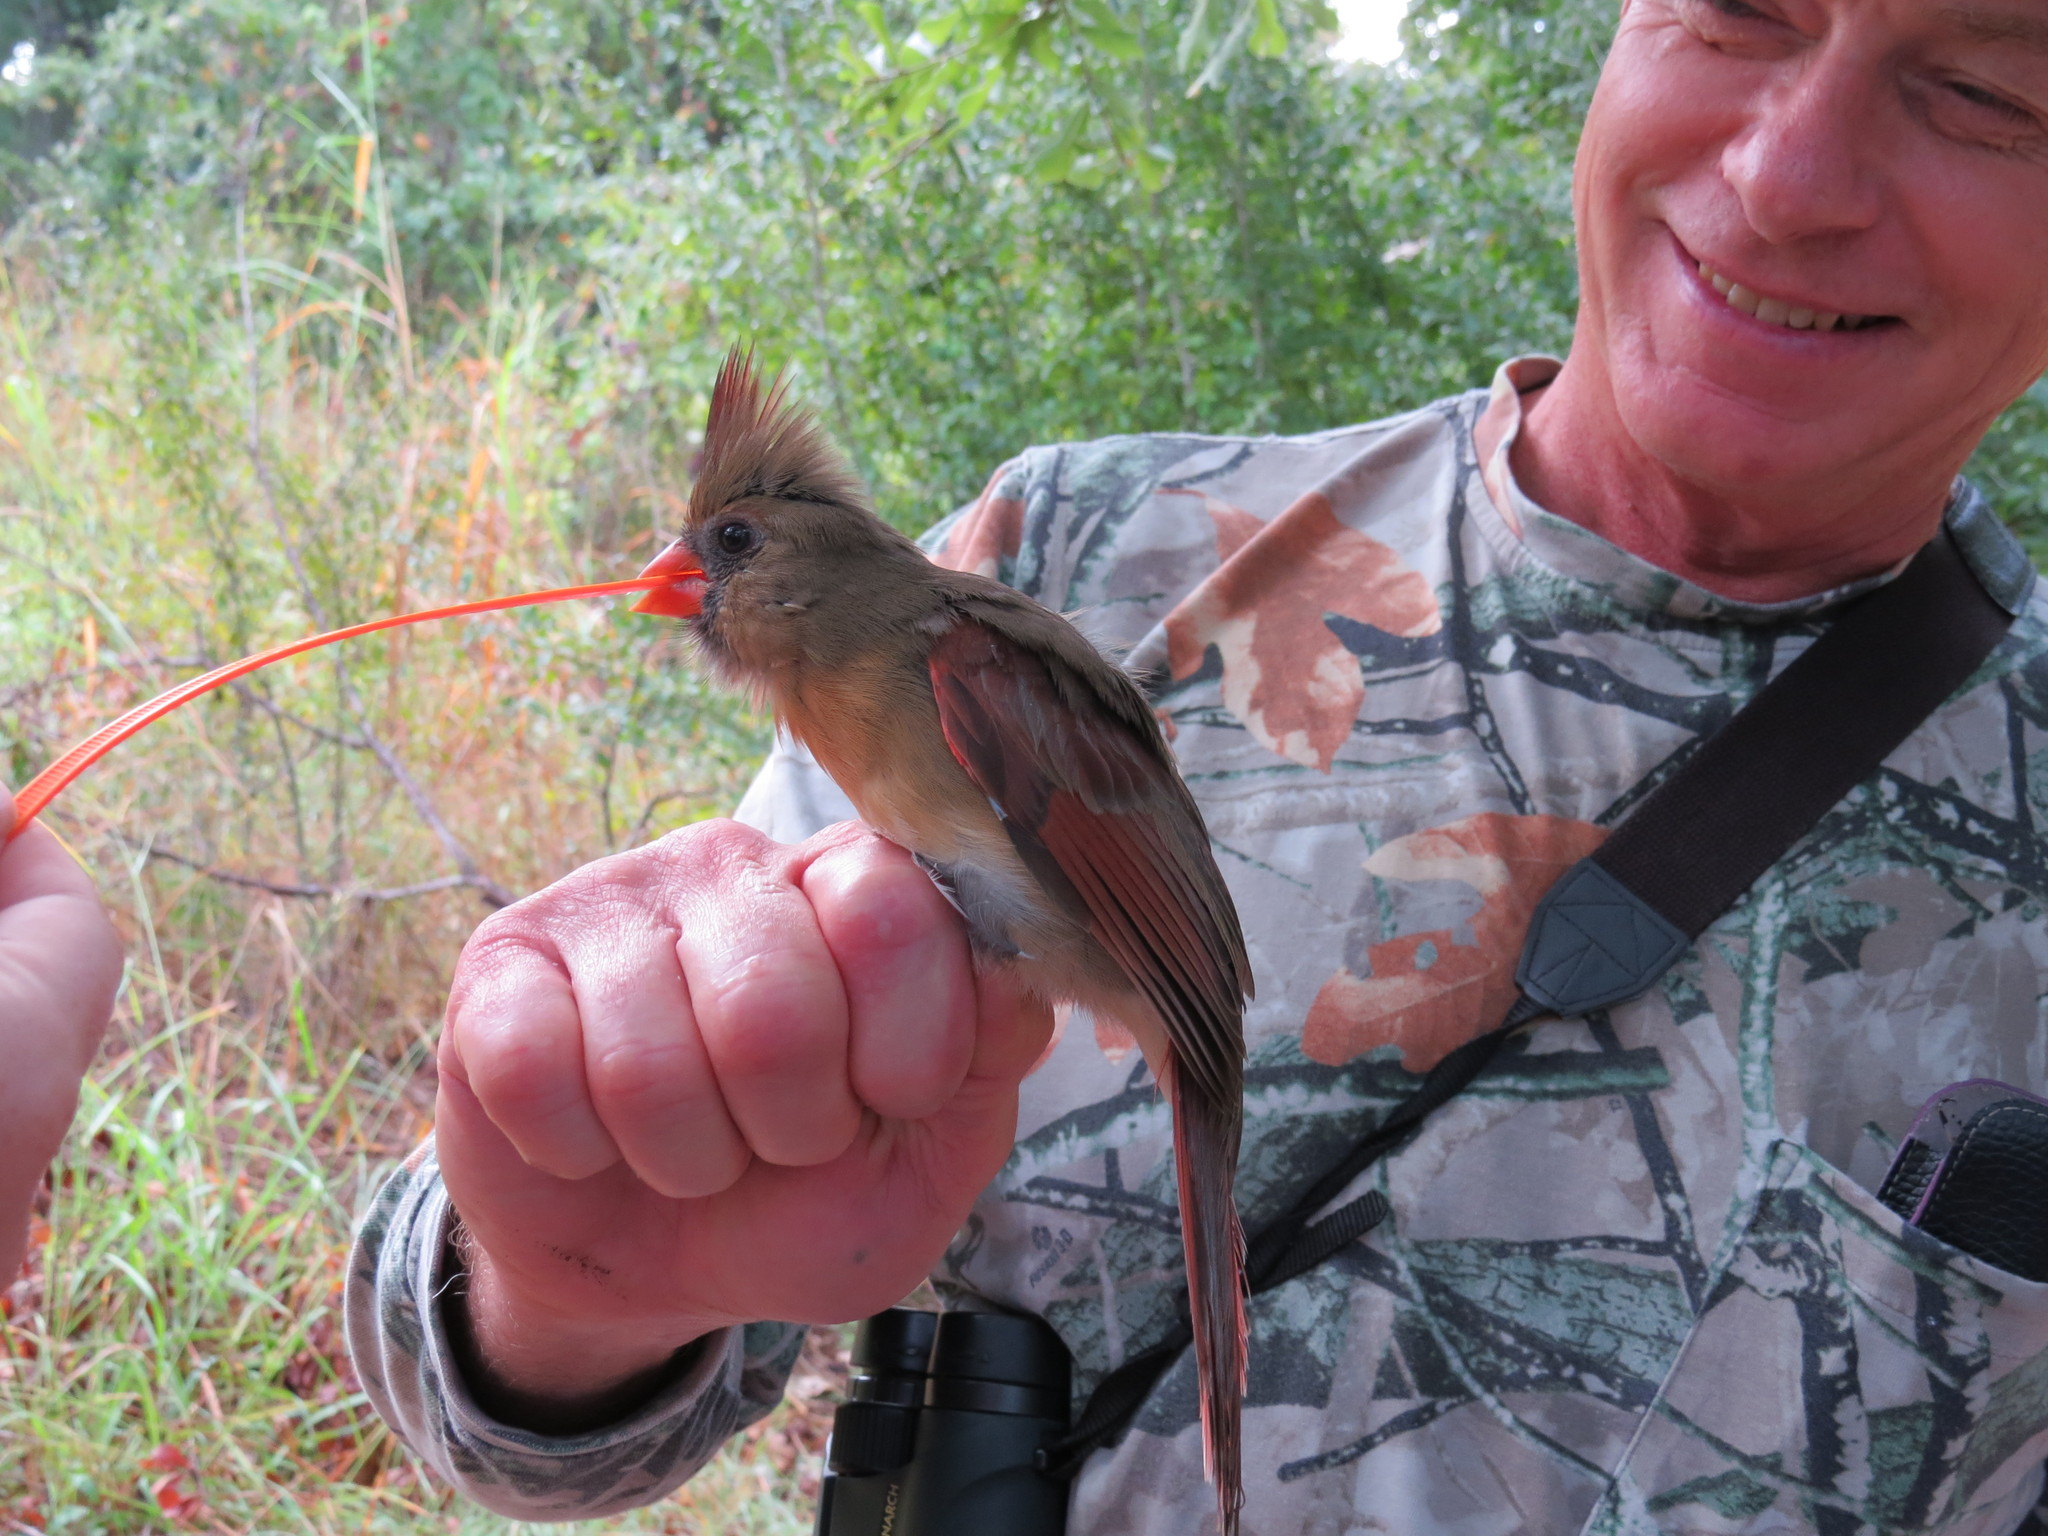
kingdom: Animalia
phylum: Chordata
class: Aves
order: Passeriformes
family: Cardinalidae
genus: Cardinalis
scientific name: Cardinalis cardinalis
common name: Northern cardinal
